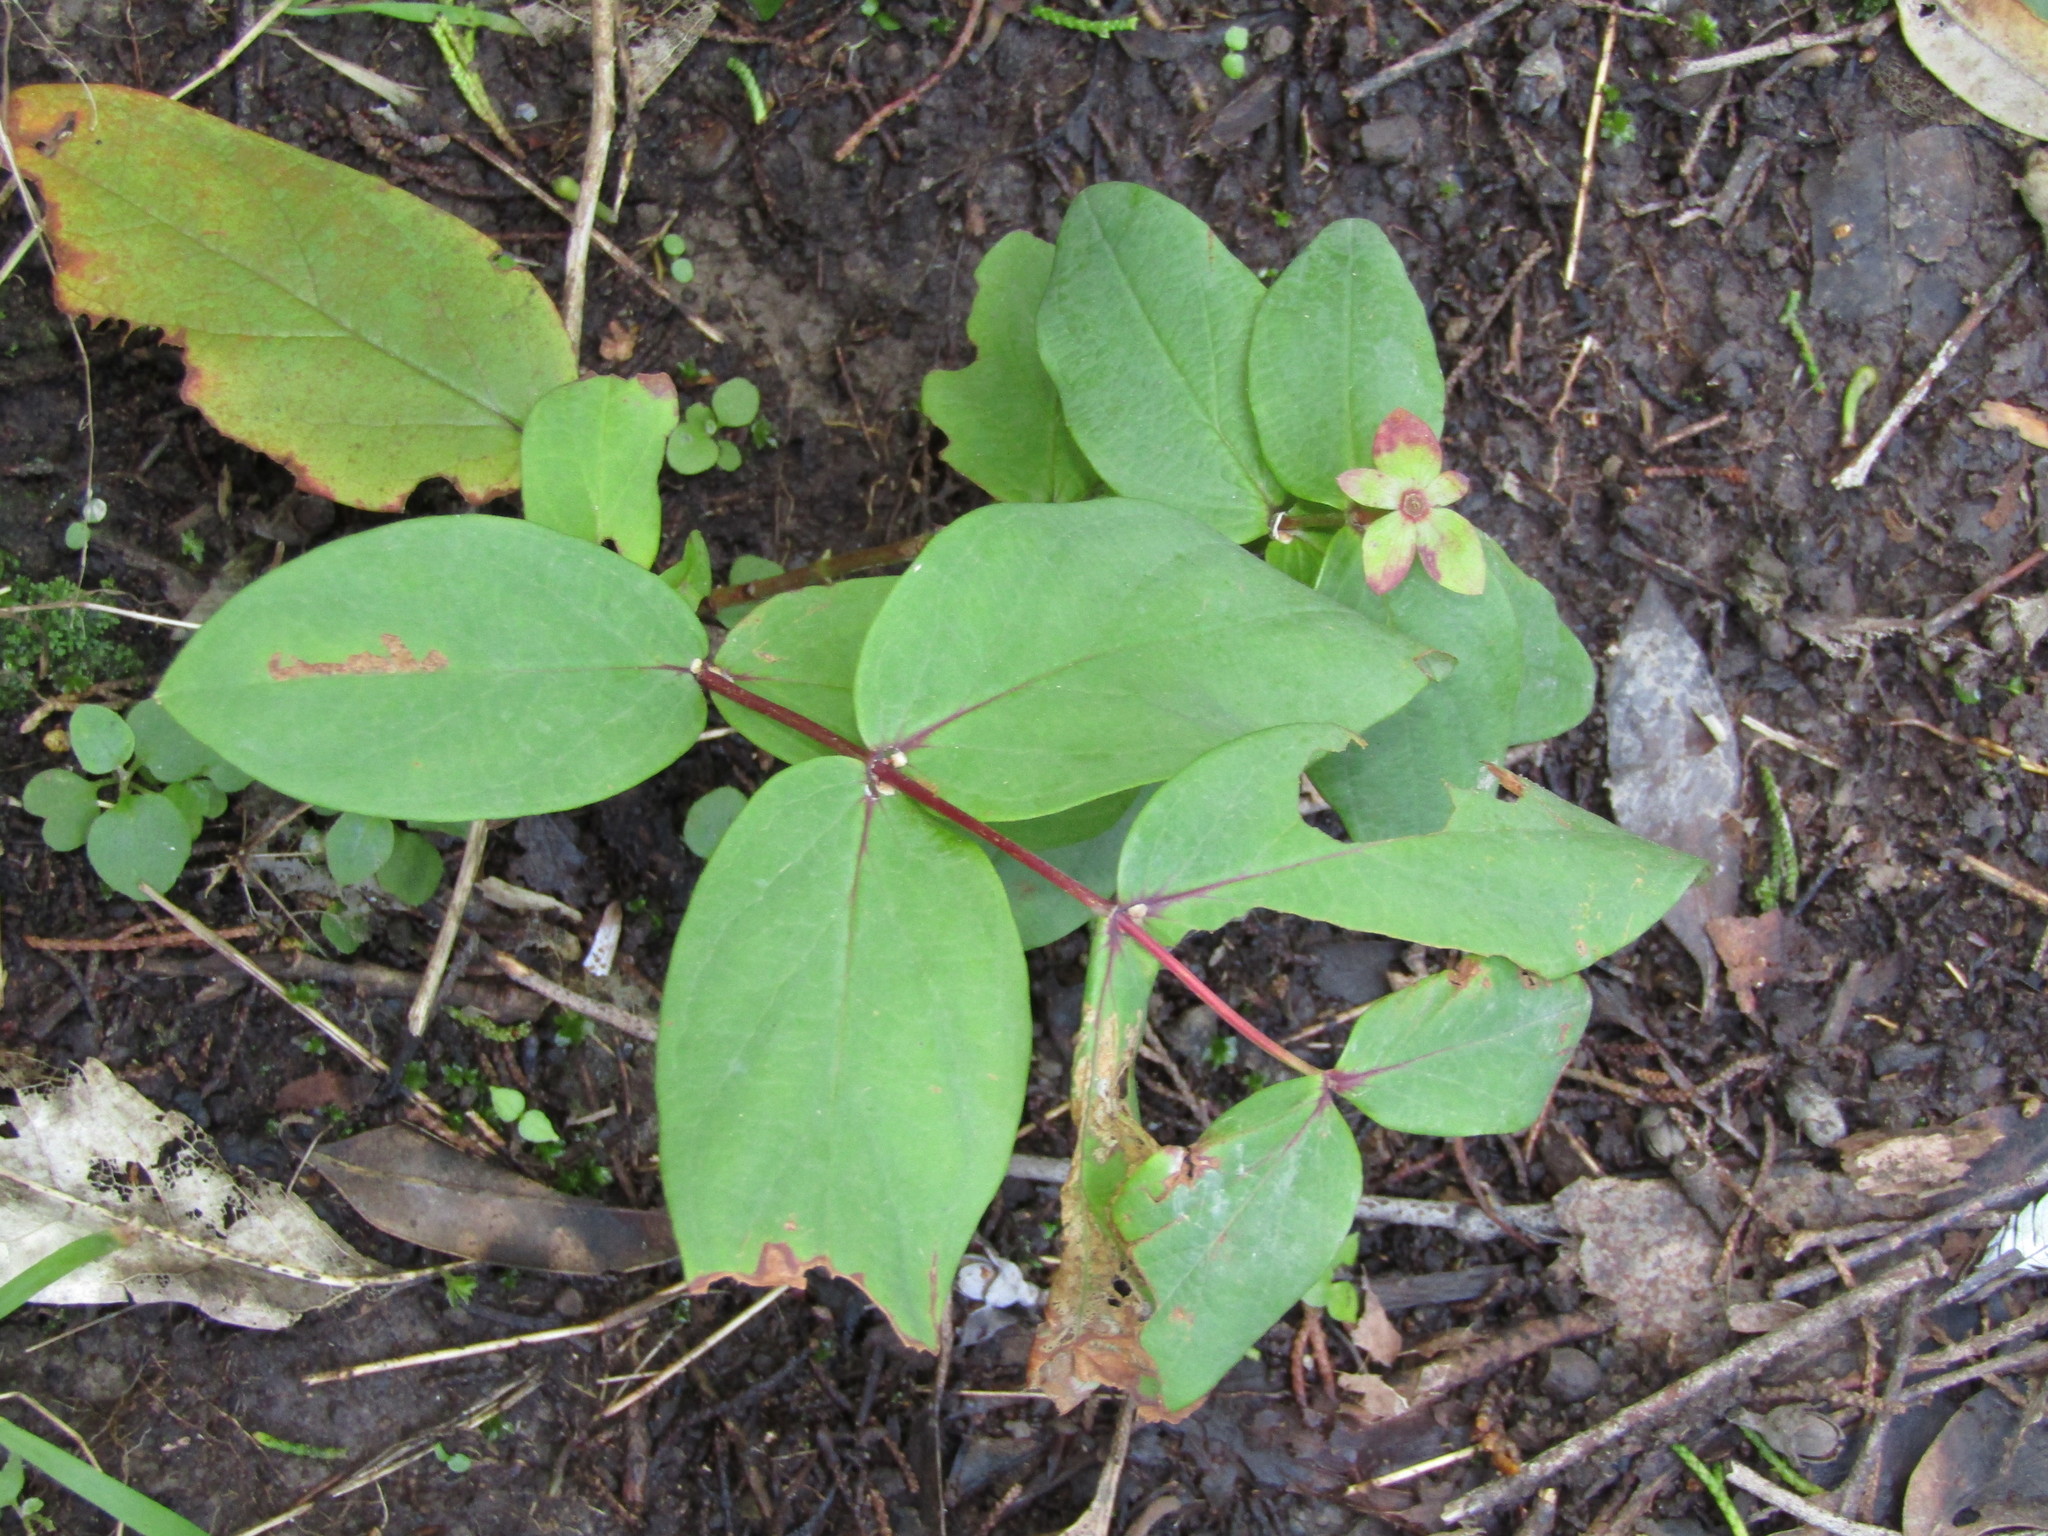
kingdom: Plantae
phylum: Tracheophyta
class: Magnoliopsida
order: Malpighiales
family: Hypericaceae
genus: Hypericum
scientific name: Hypericum androsaemum
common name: Sweet-amber
